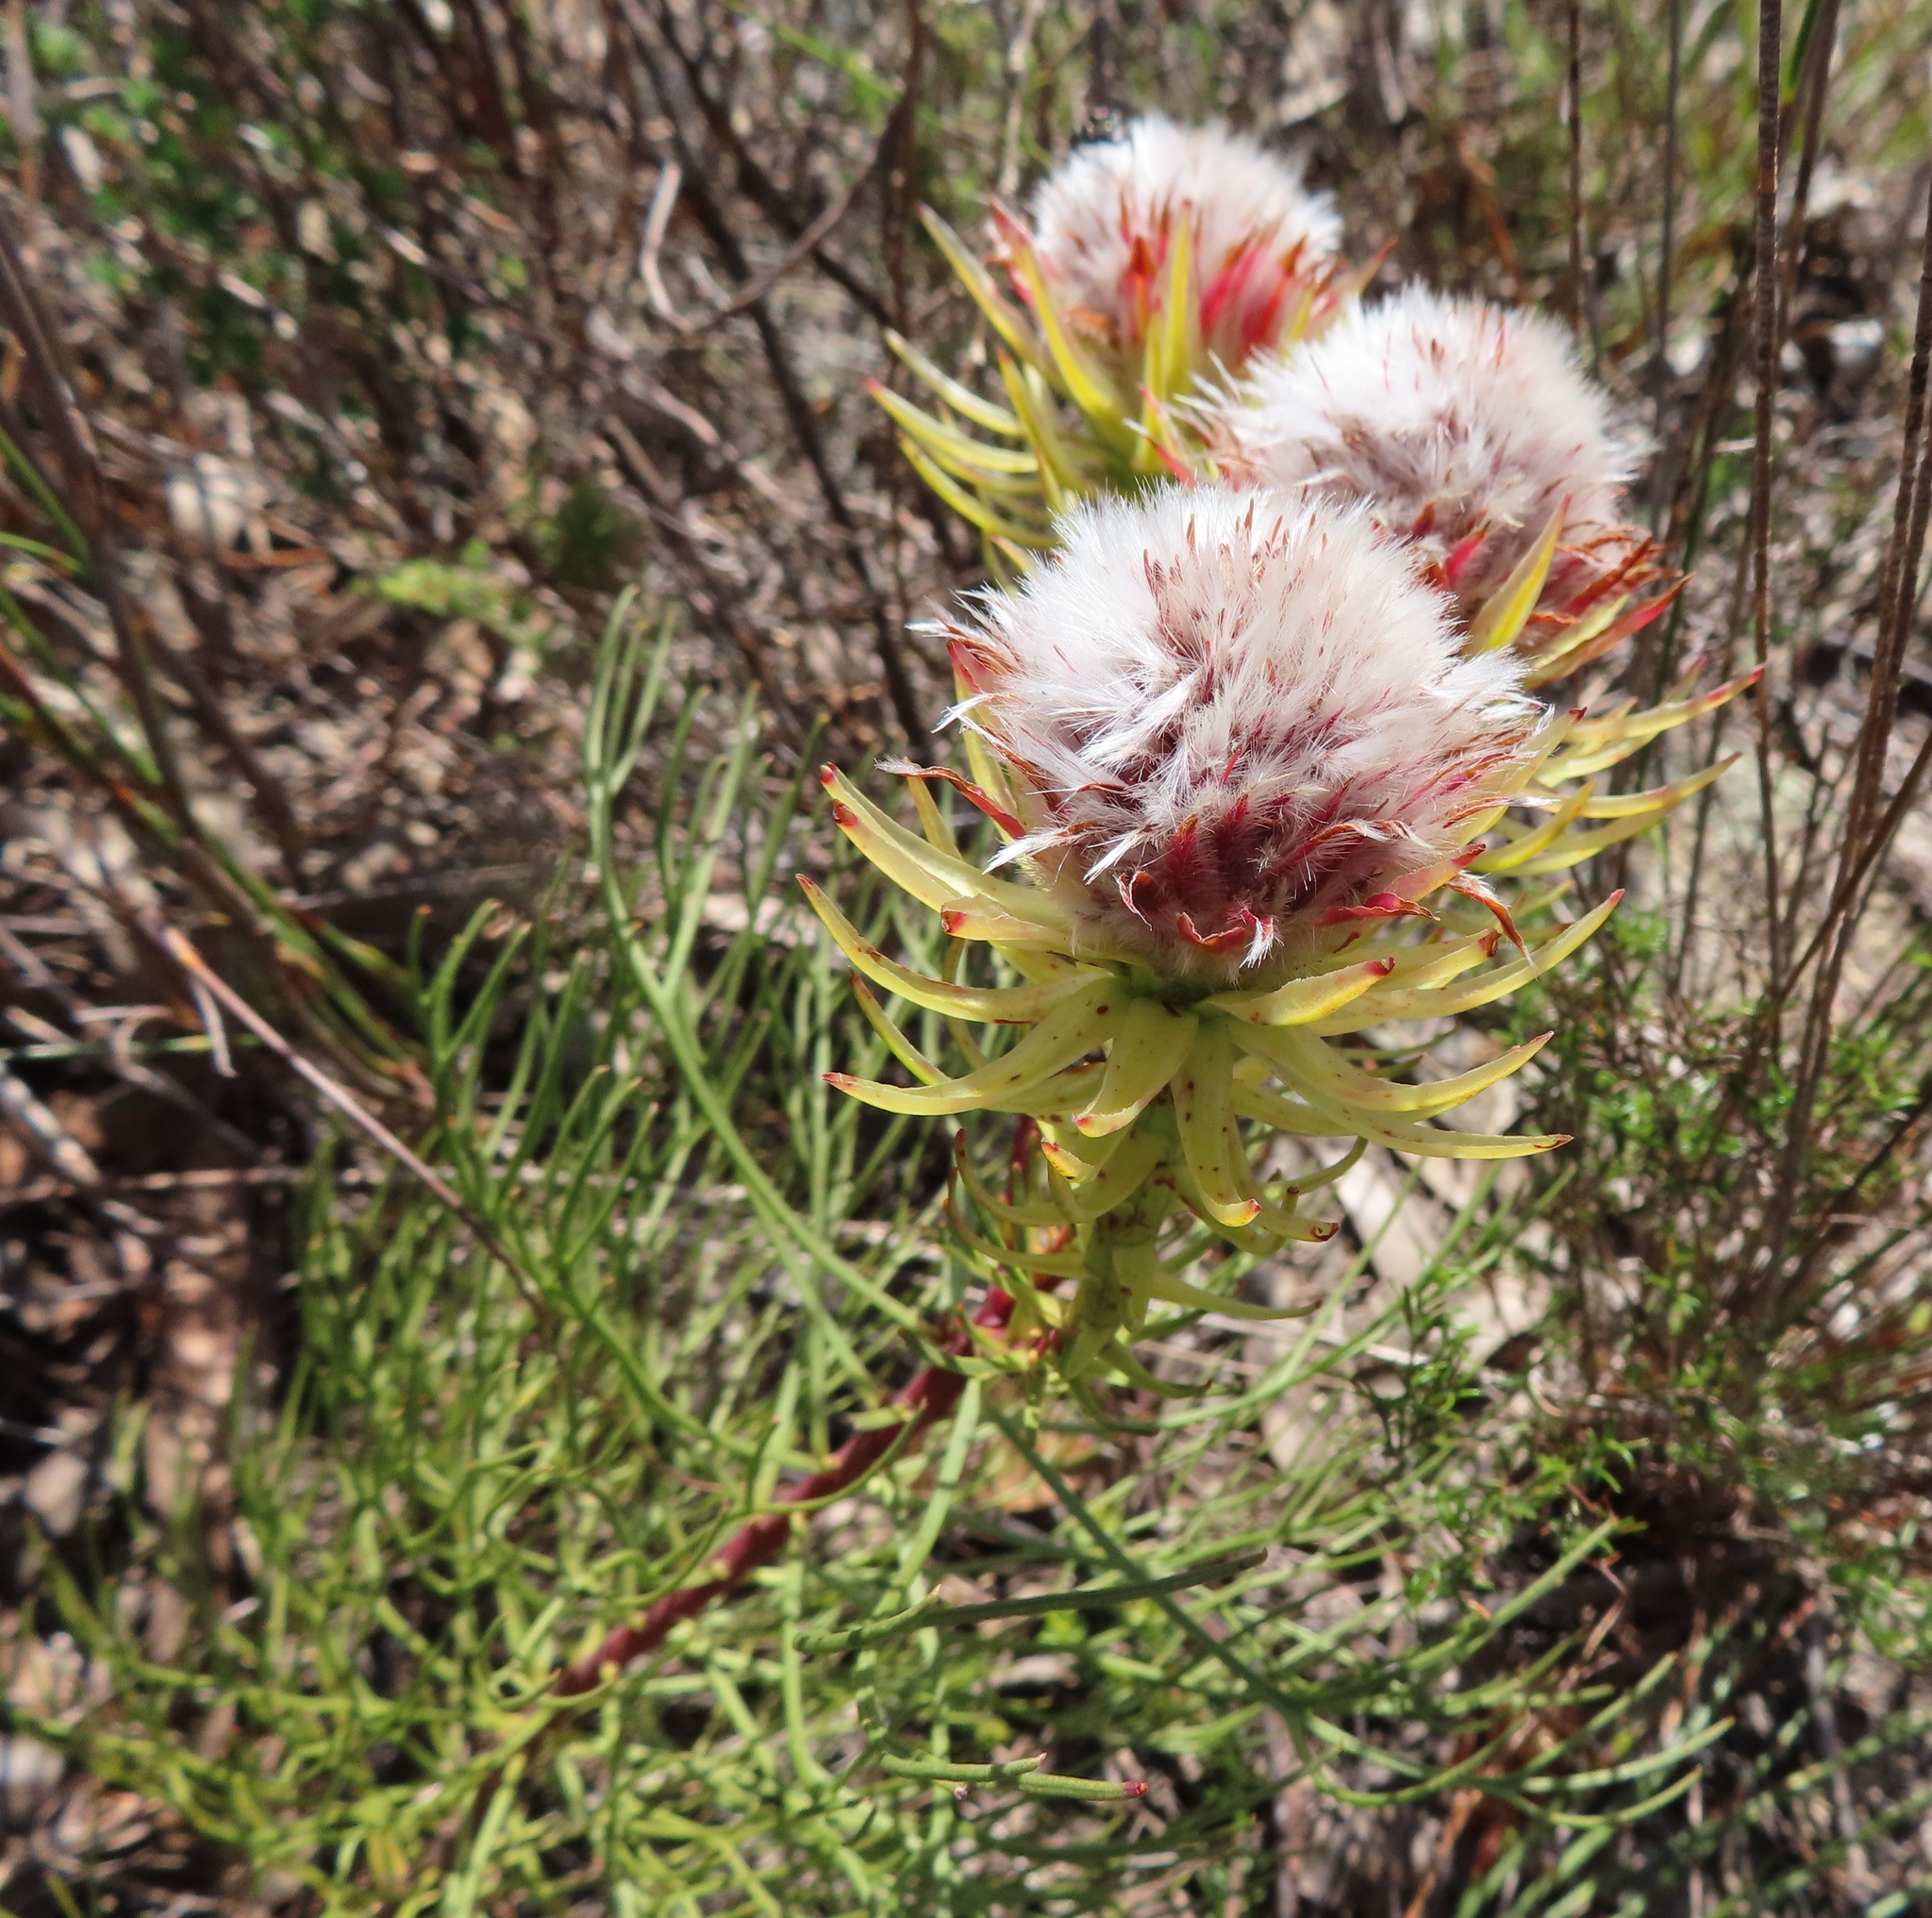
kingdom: Plantae
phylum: Tracheophyta
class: Magnoliopsida
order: Proteales
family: Proteaceae
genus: Serruria
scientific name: Serruria phylicoides
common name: Bearded spiderhead
